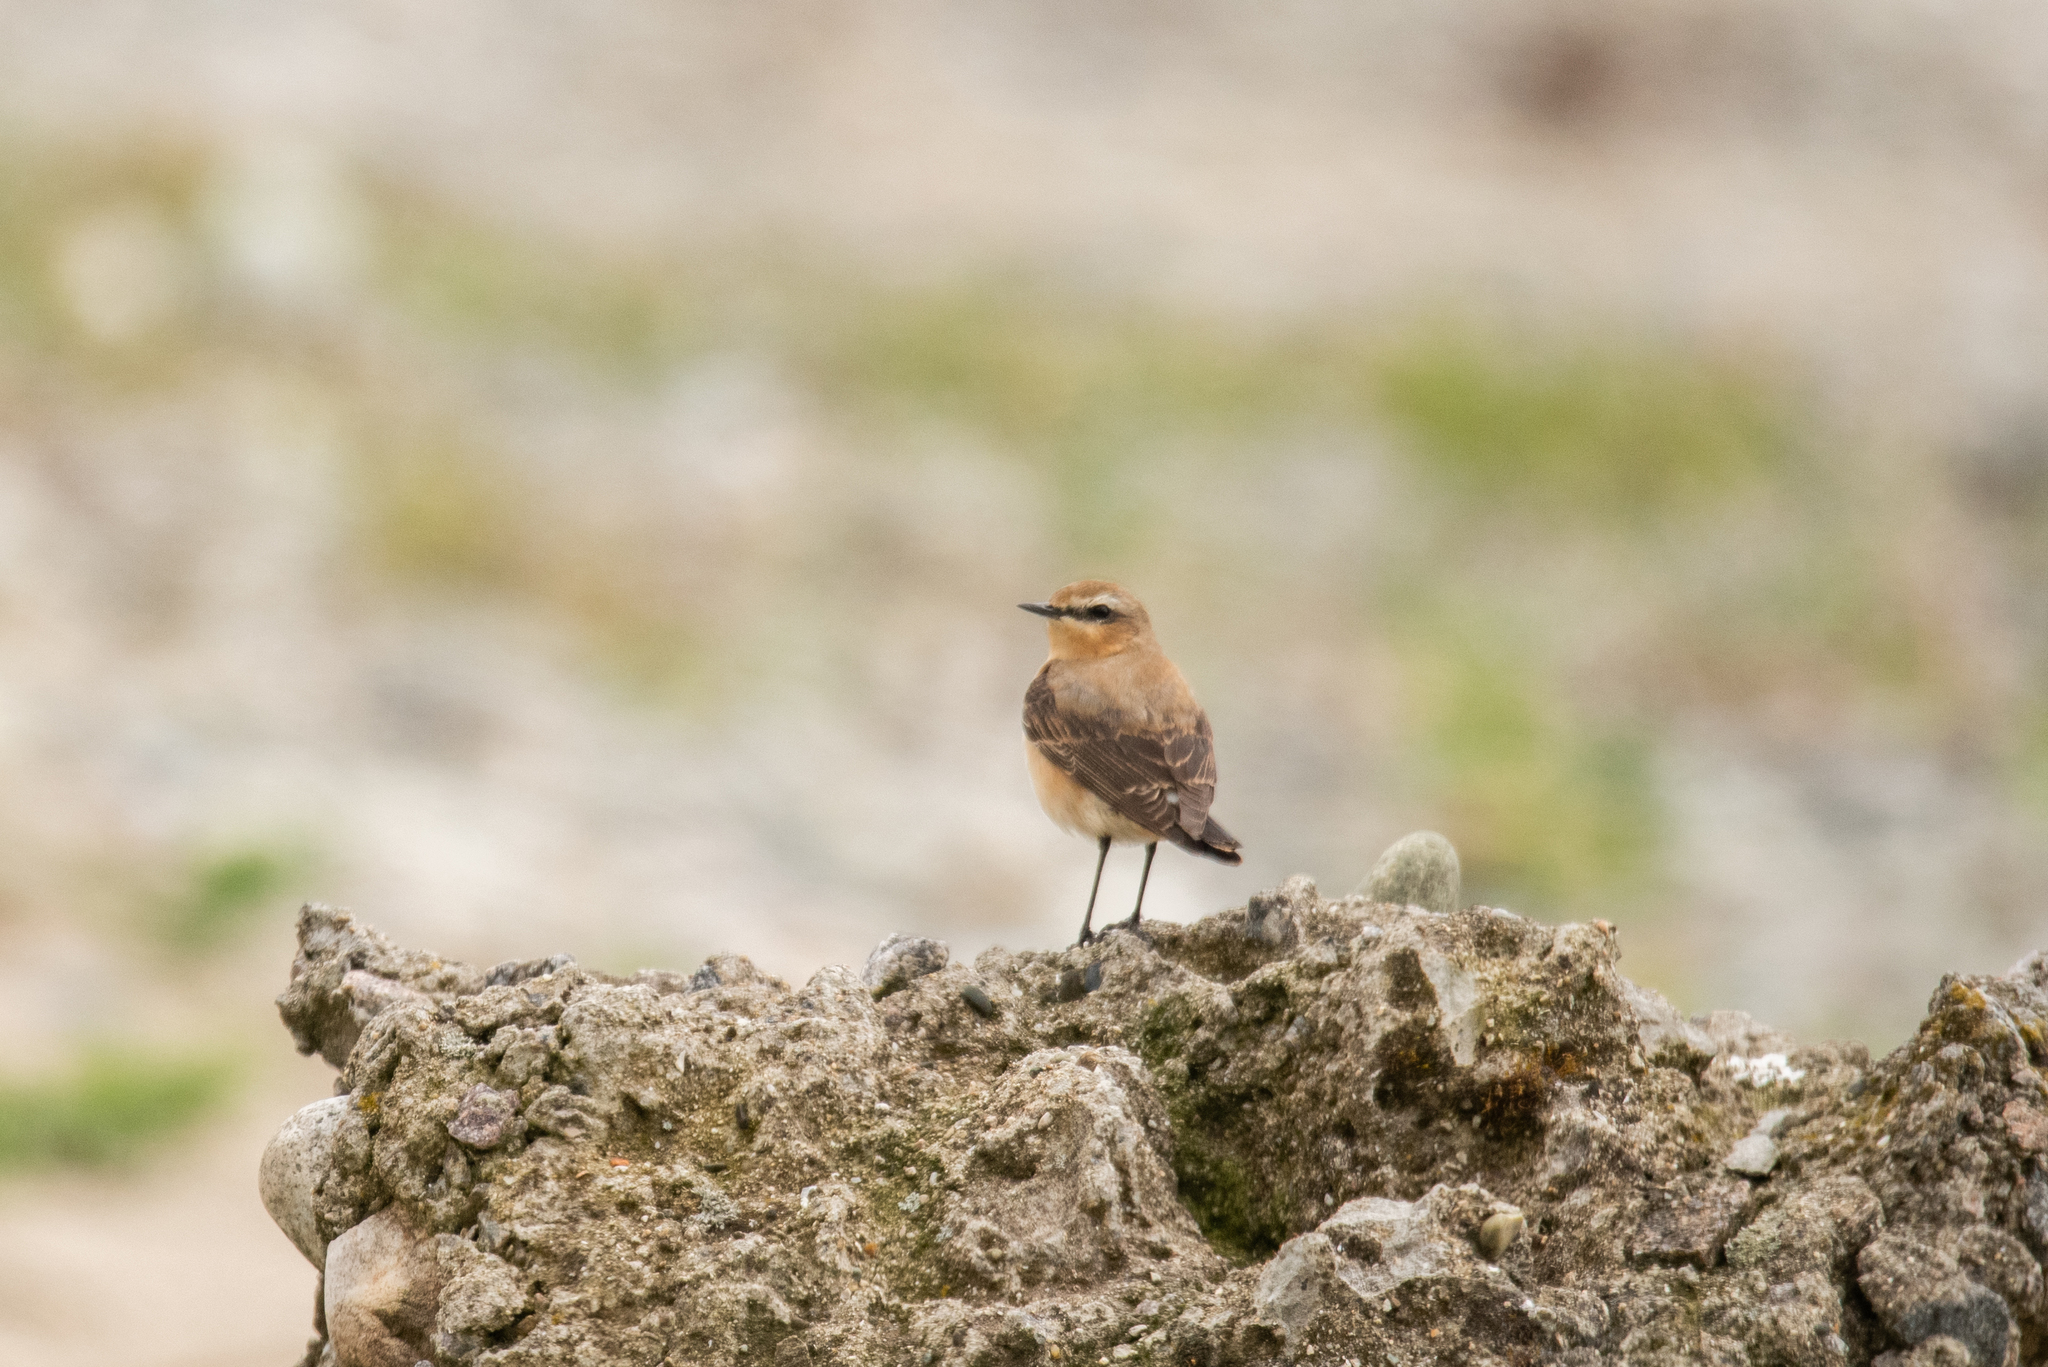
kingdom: Animalia
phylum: Chordata
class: Aves
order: Passeriformes
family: Muscicapidae
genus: Oenanthe
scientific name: Oenanthe oenanthe
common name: Northern wheatear
